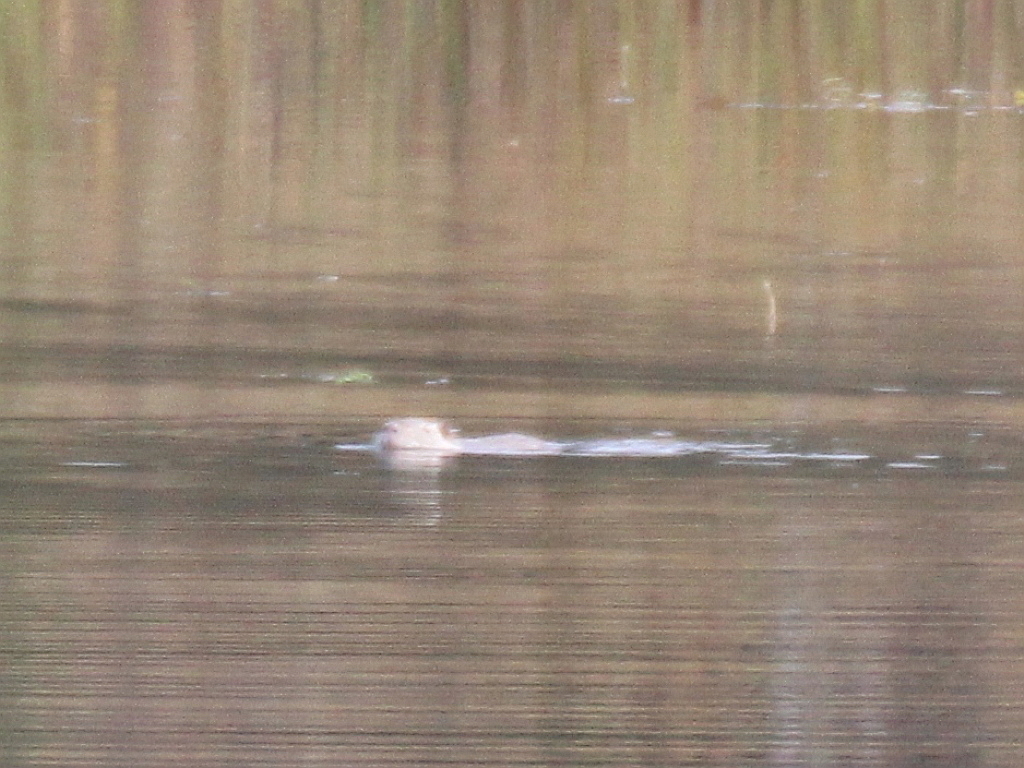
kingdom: Animalia
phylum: Chordata
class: Mammalia
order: Rodentia
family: Myocastoridae
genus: Myocastor
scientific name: Myocastor coypus
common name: Coypu
